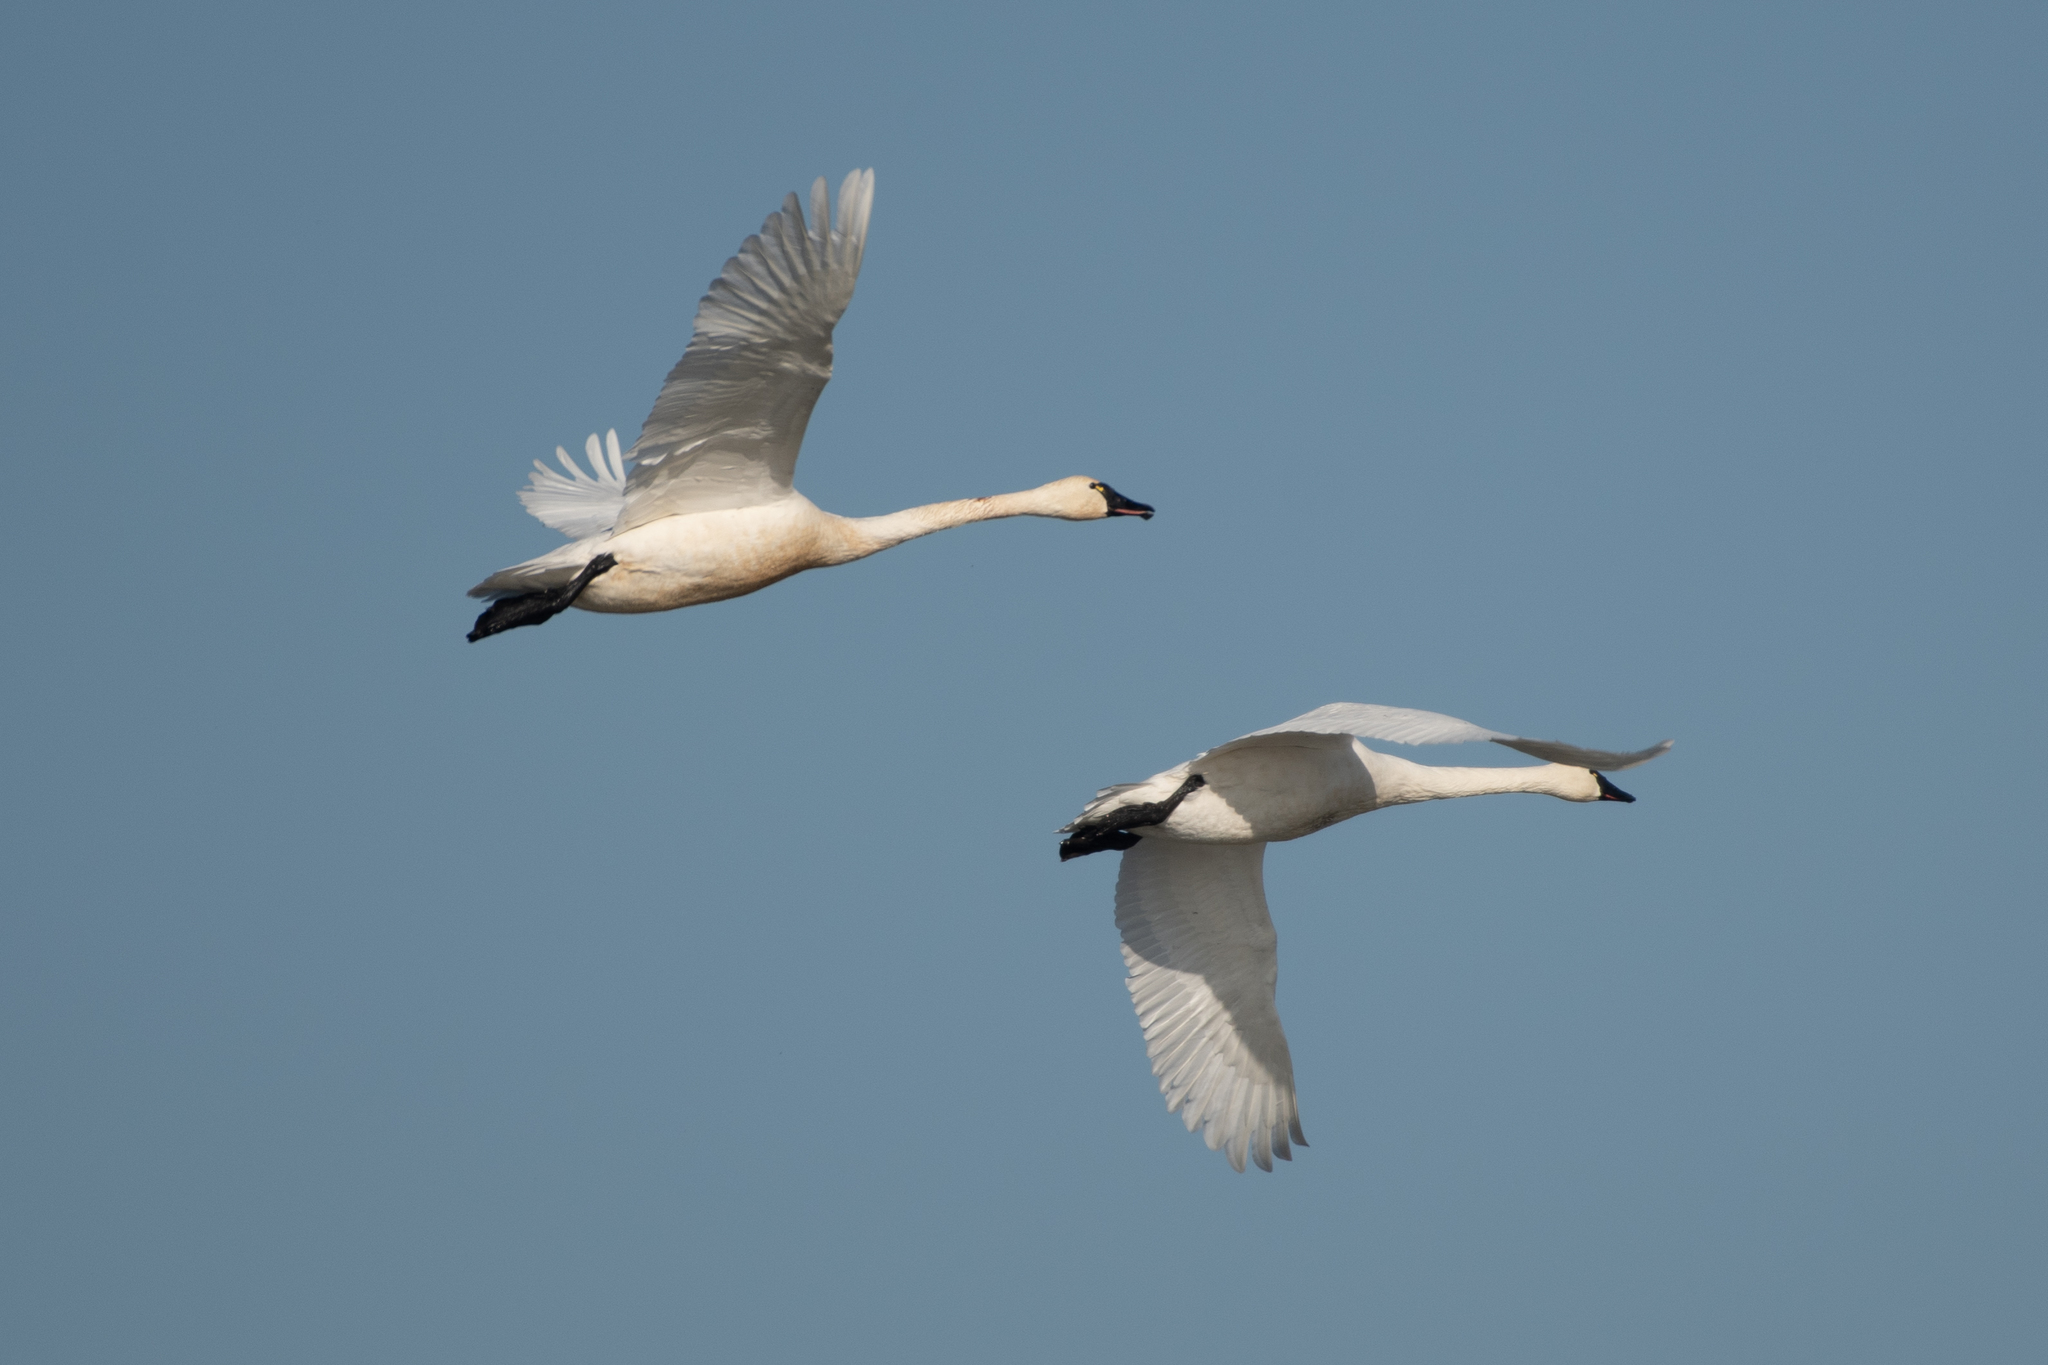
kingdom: Animalia
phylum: Chordata
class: Aves
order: Anseriformes
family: Anatidae
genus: Cygnus
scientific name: Cygnus columbianus
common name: Tundra swan
